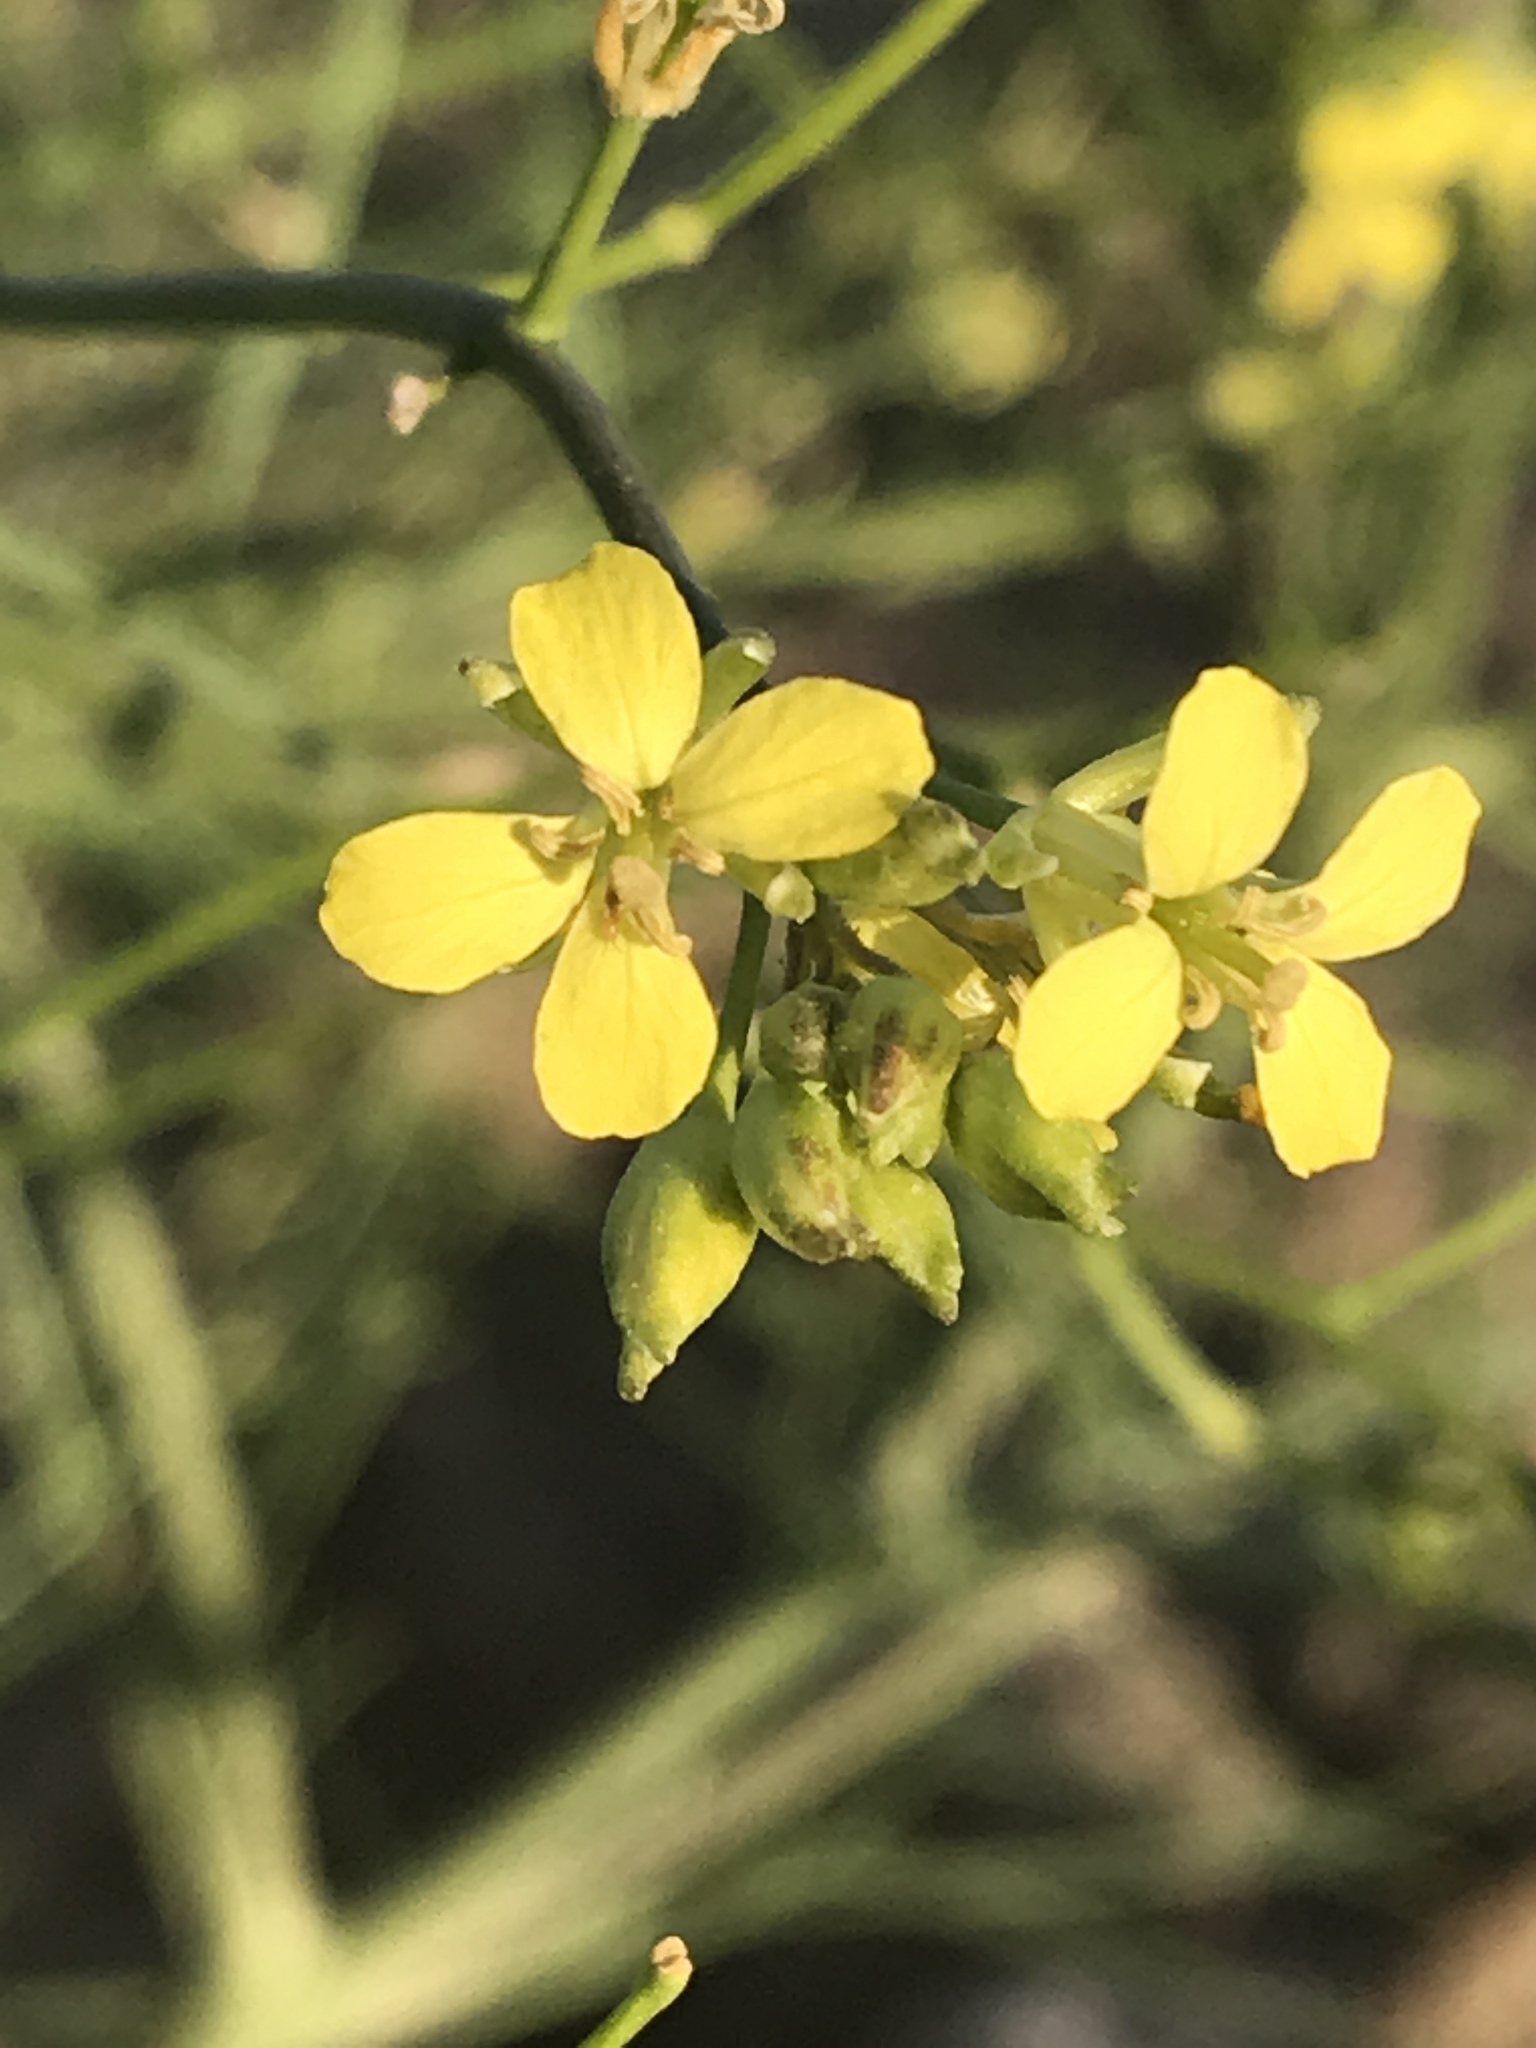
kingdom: Plantae
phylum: Tracheophyta
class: Magnoliopsida
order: Brassicales
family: Brassicaceae
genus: Sisymbrium
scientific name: Sisymbrium altissimum
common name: Tall rocket
